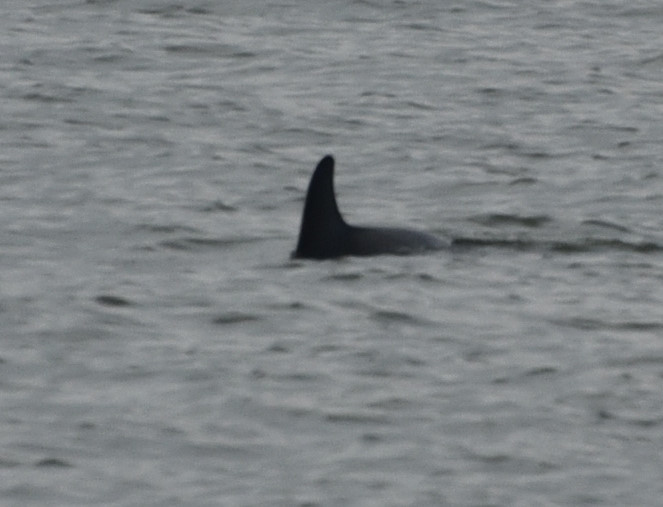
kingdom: Animalia
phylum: Chordata
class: Mammalia
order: Cetacea
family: Delphinidae
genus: Tursiops
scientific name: Tursiops truncatus
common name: Bottlenose dolphin
